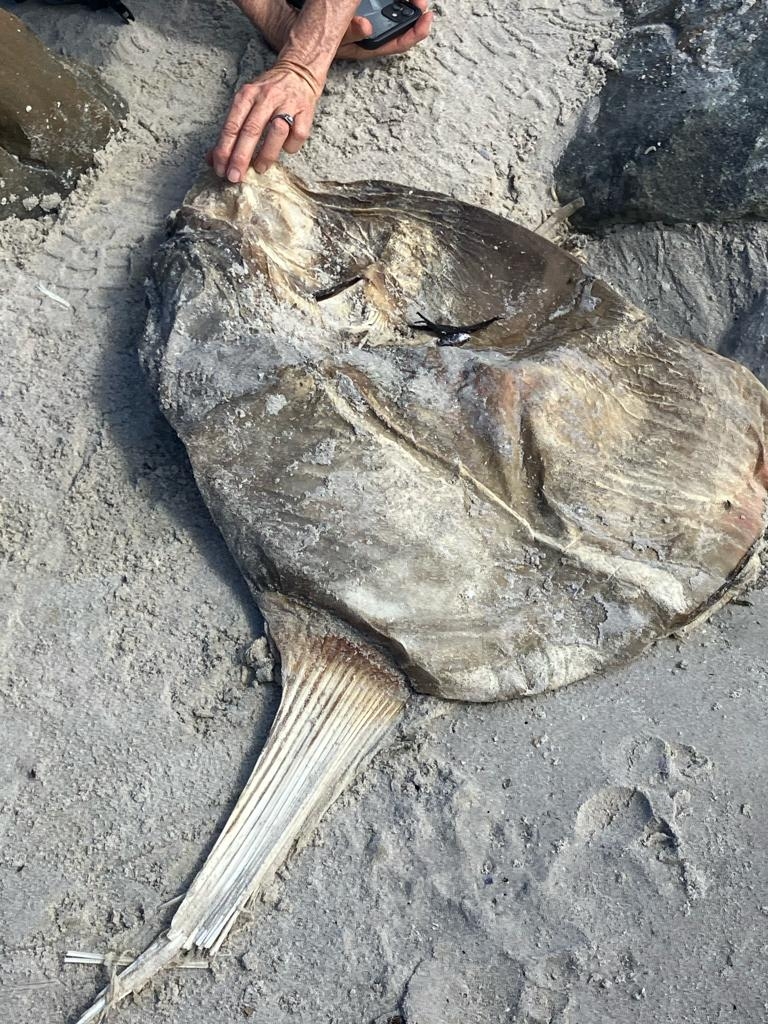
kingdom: Animalia
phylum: Chordata
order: Tetraodontiformes
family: Molidae
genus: Mola
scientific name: Mola mola
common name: Ocean sunfish
